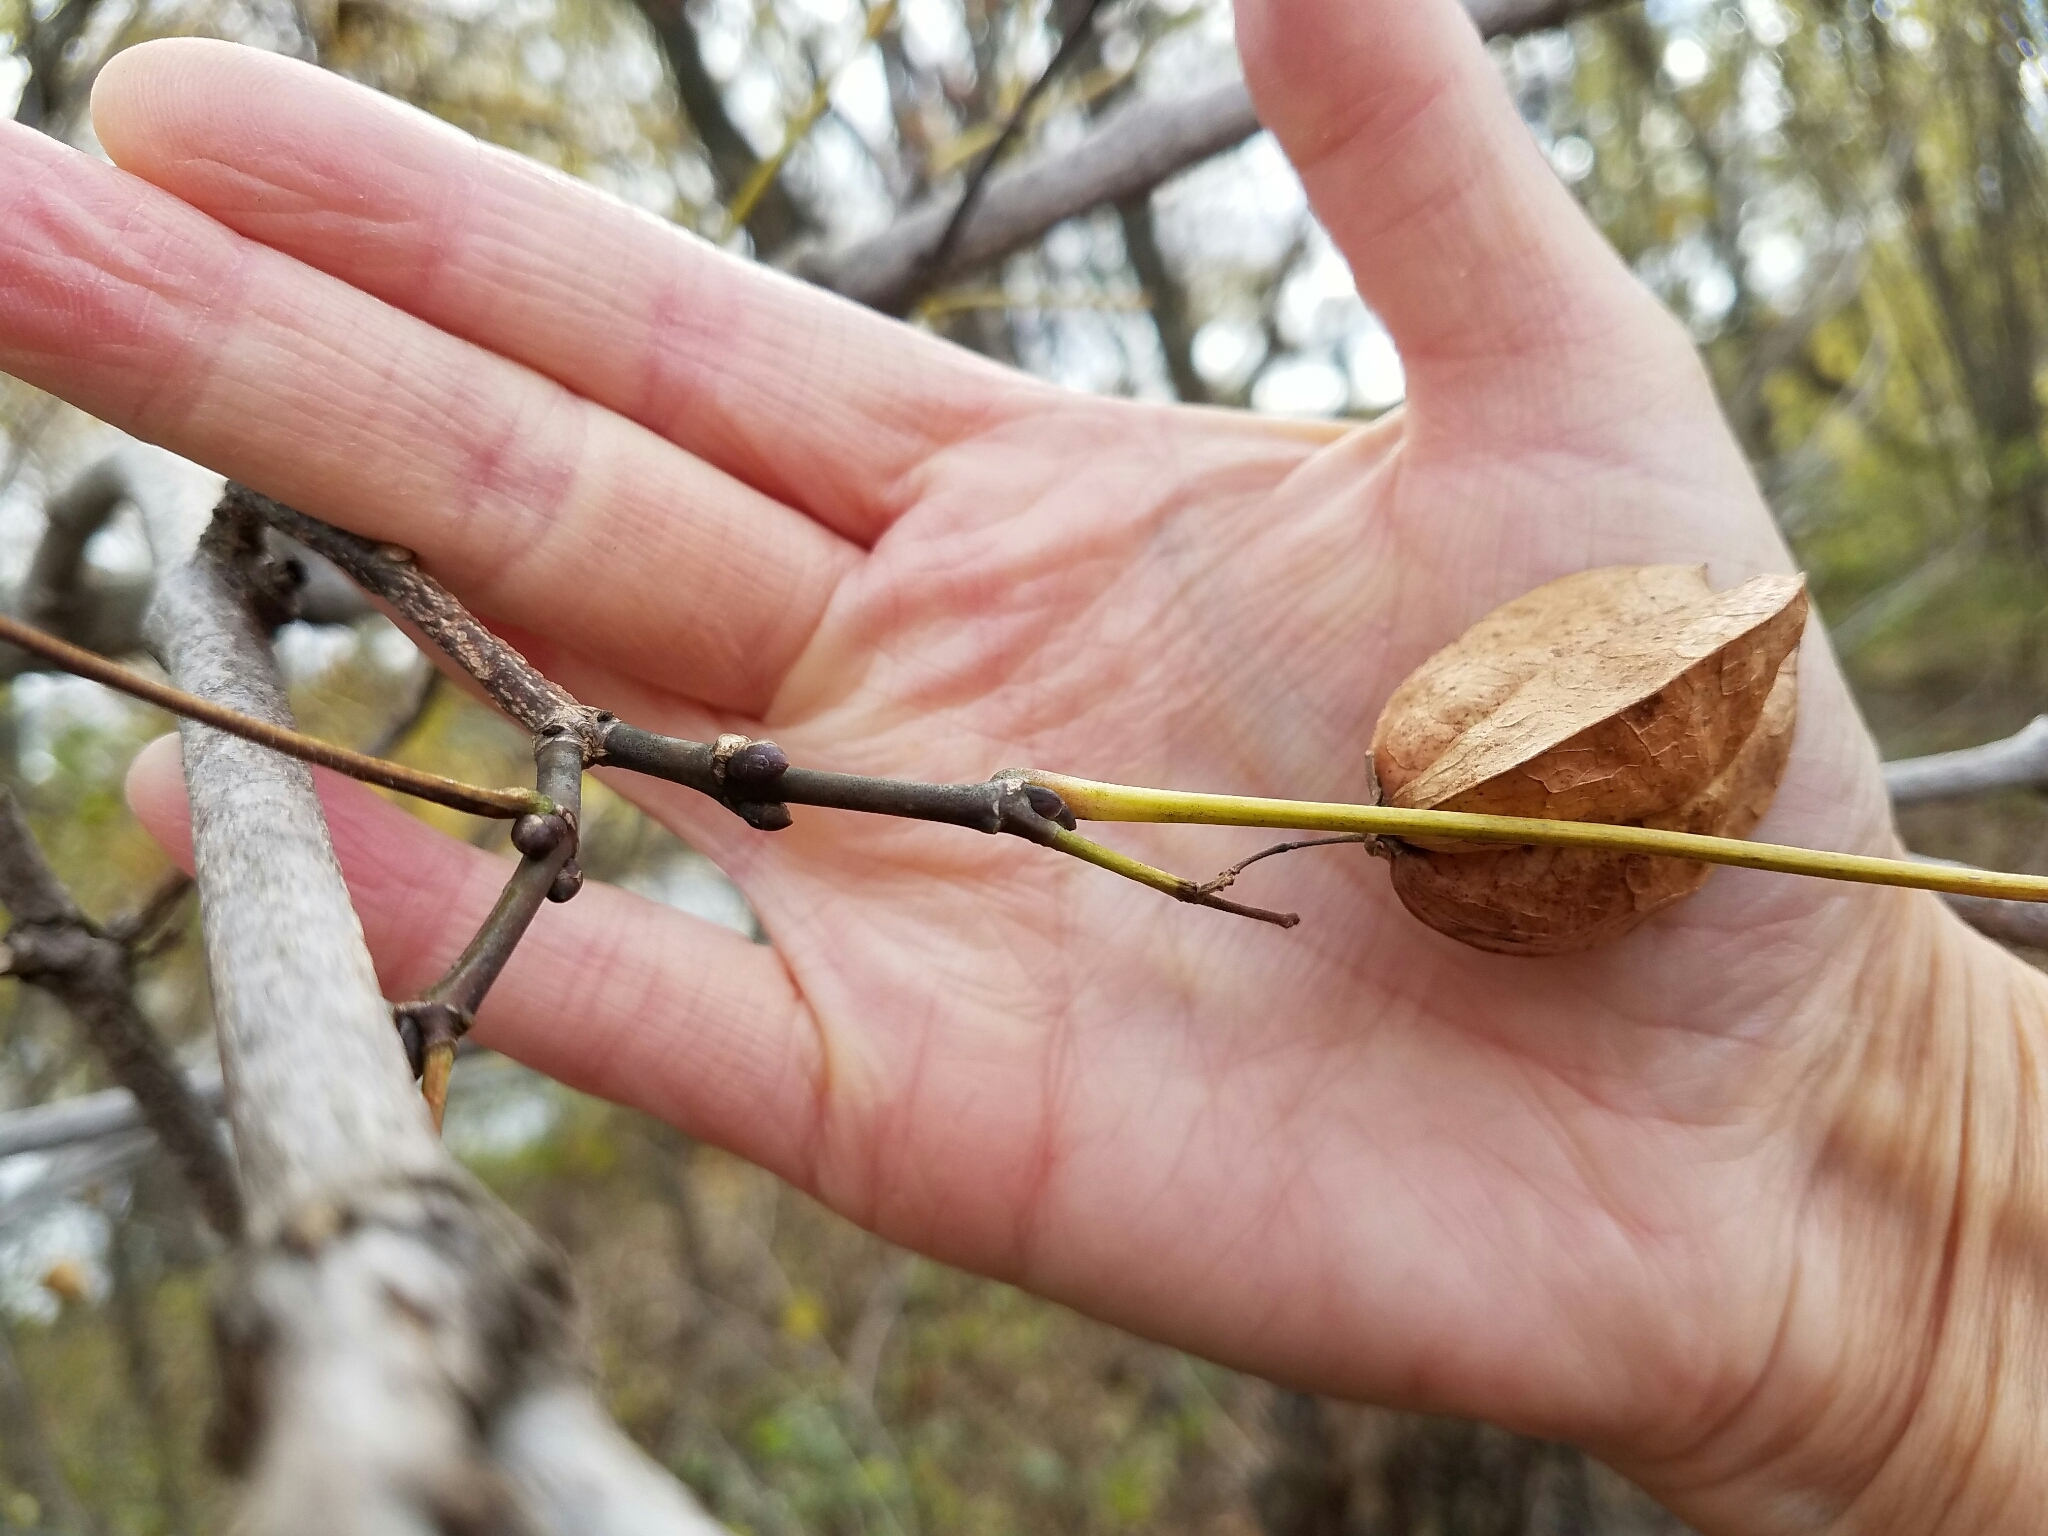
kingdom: Plantae
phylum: Tracheophyta
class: Magnoliopsida
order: Crossosomatales
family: Staphyleaceae
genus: Staphylea
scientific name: Staphylea trifolia
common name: American bladdernut
